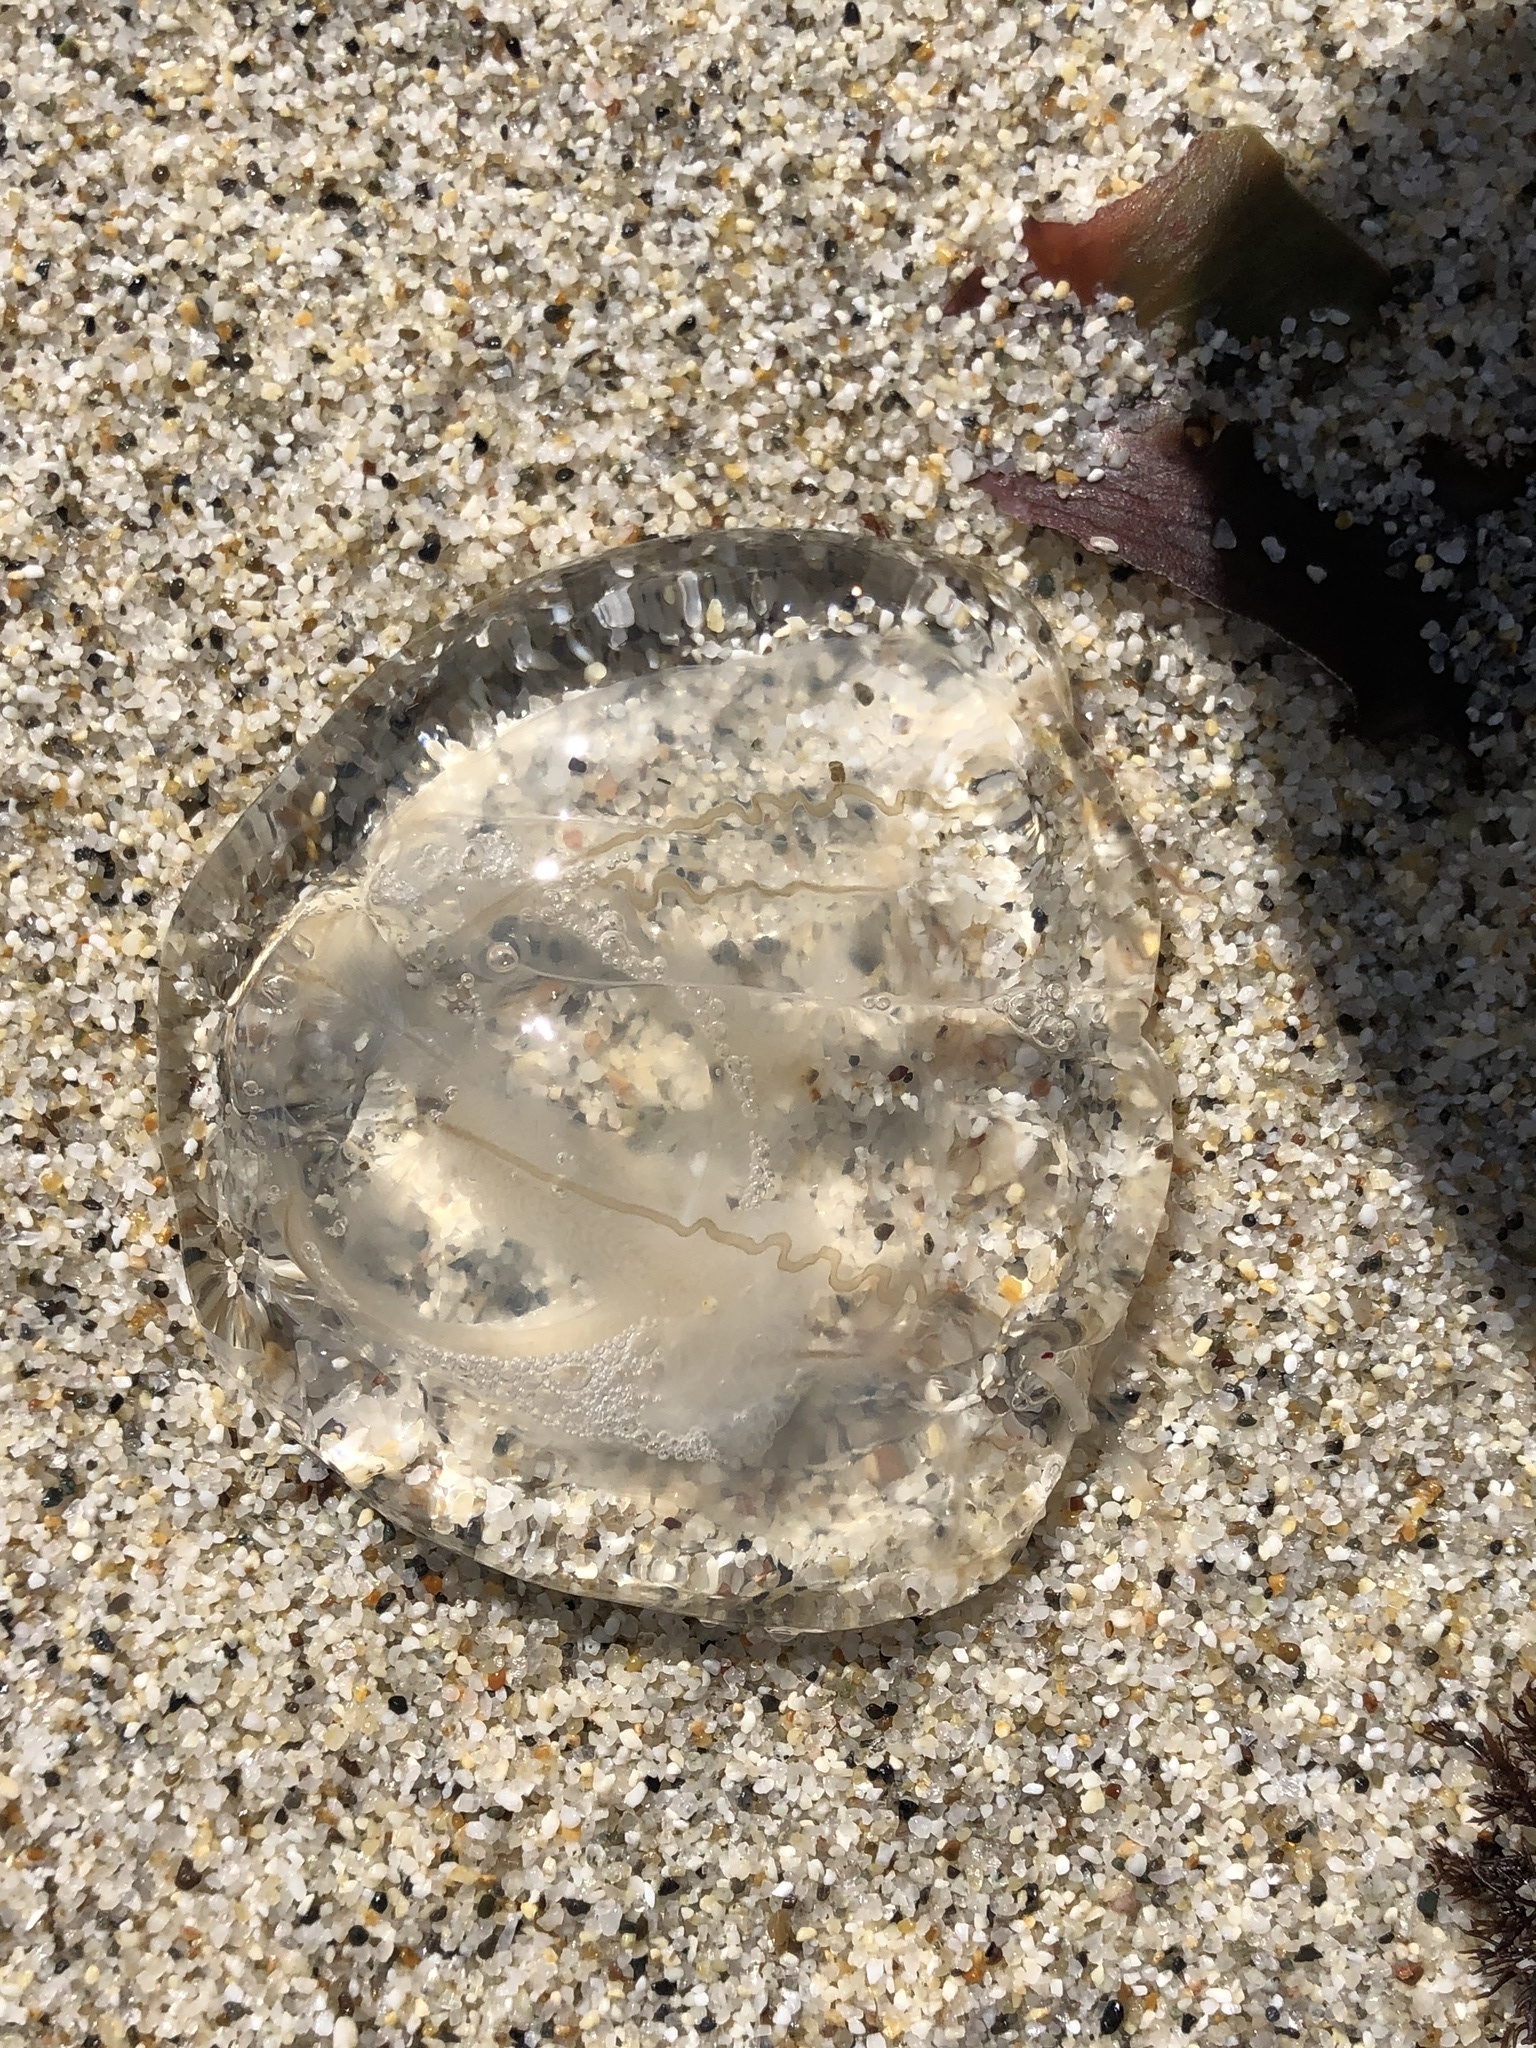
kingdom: Animalia
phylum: Cnidaria
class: Hydrozoa
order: Anthoathecata
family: Corynidae
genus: Scrippsia
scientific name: Scrippsia pacifica
